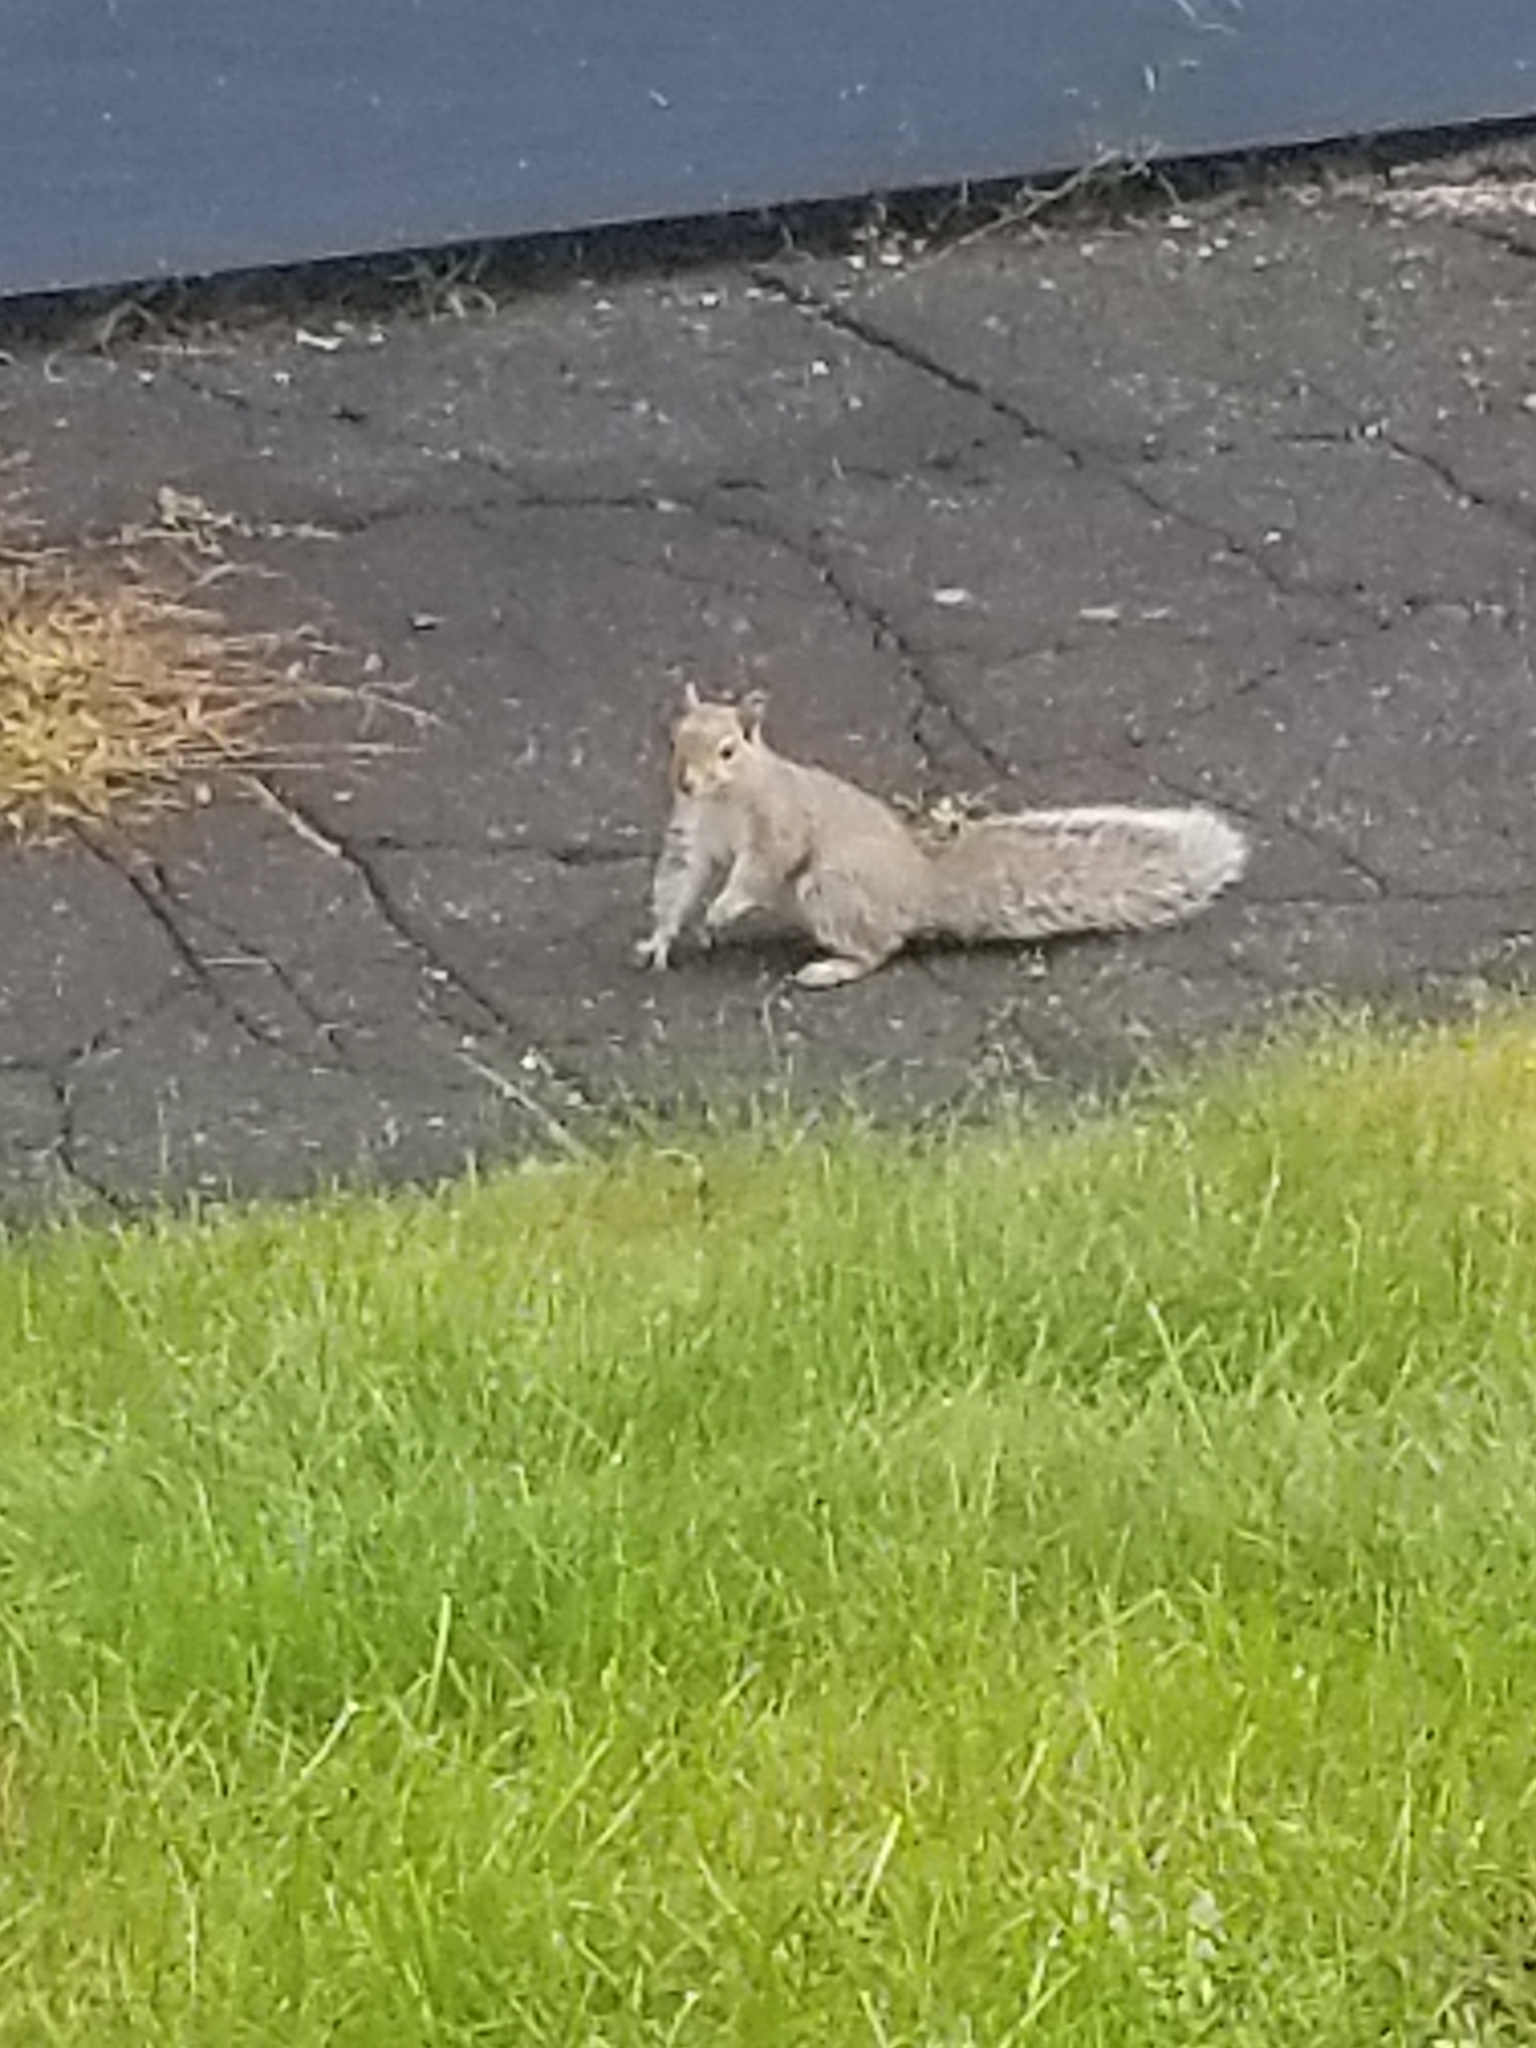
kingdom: Animalia
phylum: Chordata
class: Mammalia
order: Rodentia
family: Sciuridae
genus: Sciurus
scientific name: Sciurus carolinensis
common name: Eastern gray squirrel
